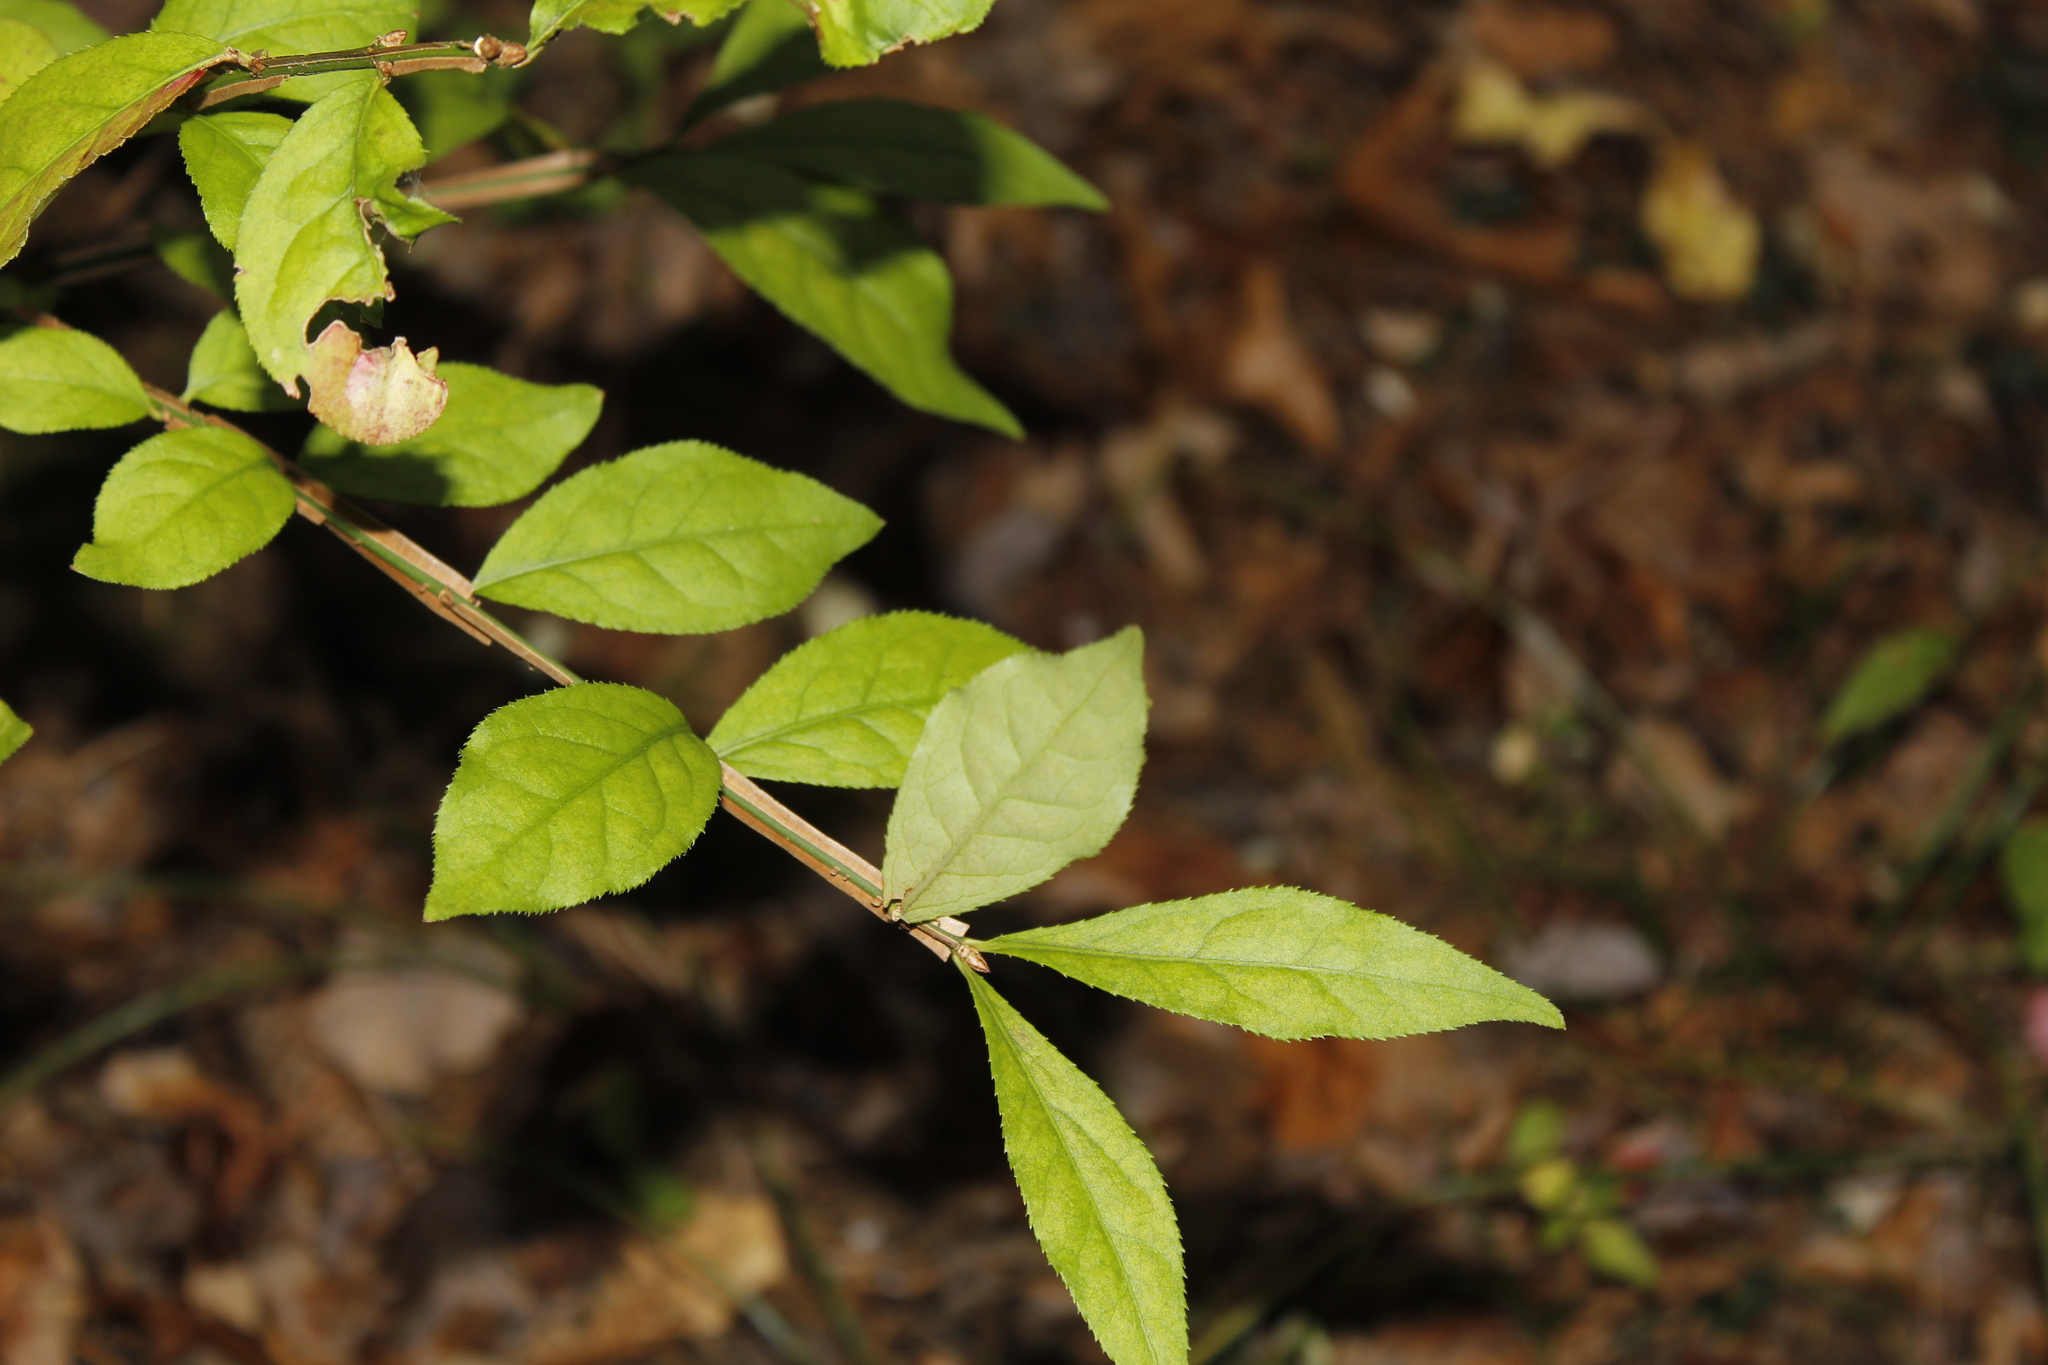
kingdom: Plantae
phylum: Tracheophyta
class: Magnoliopsida
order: Celastrales
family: Celastraceae
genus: Euonymus
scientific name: Euonymus alatus
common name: Winged euonymus
